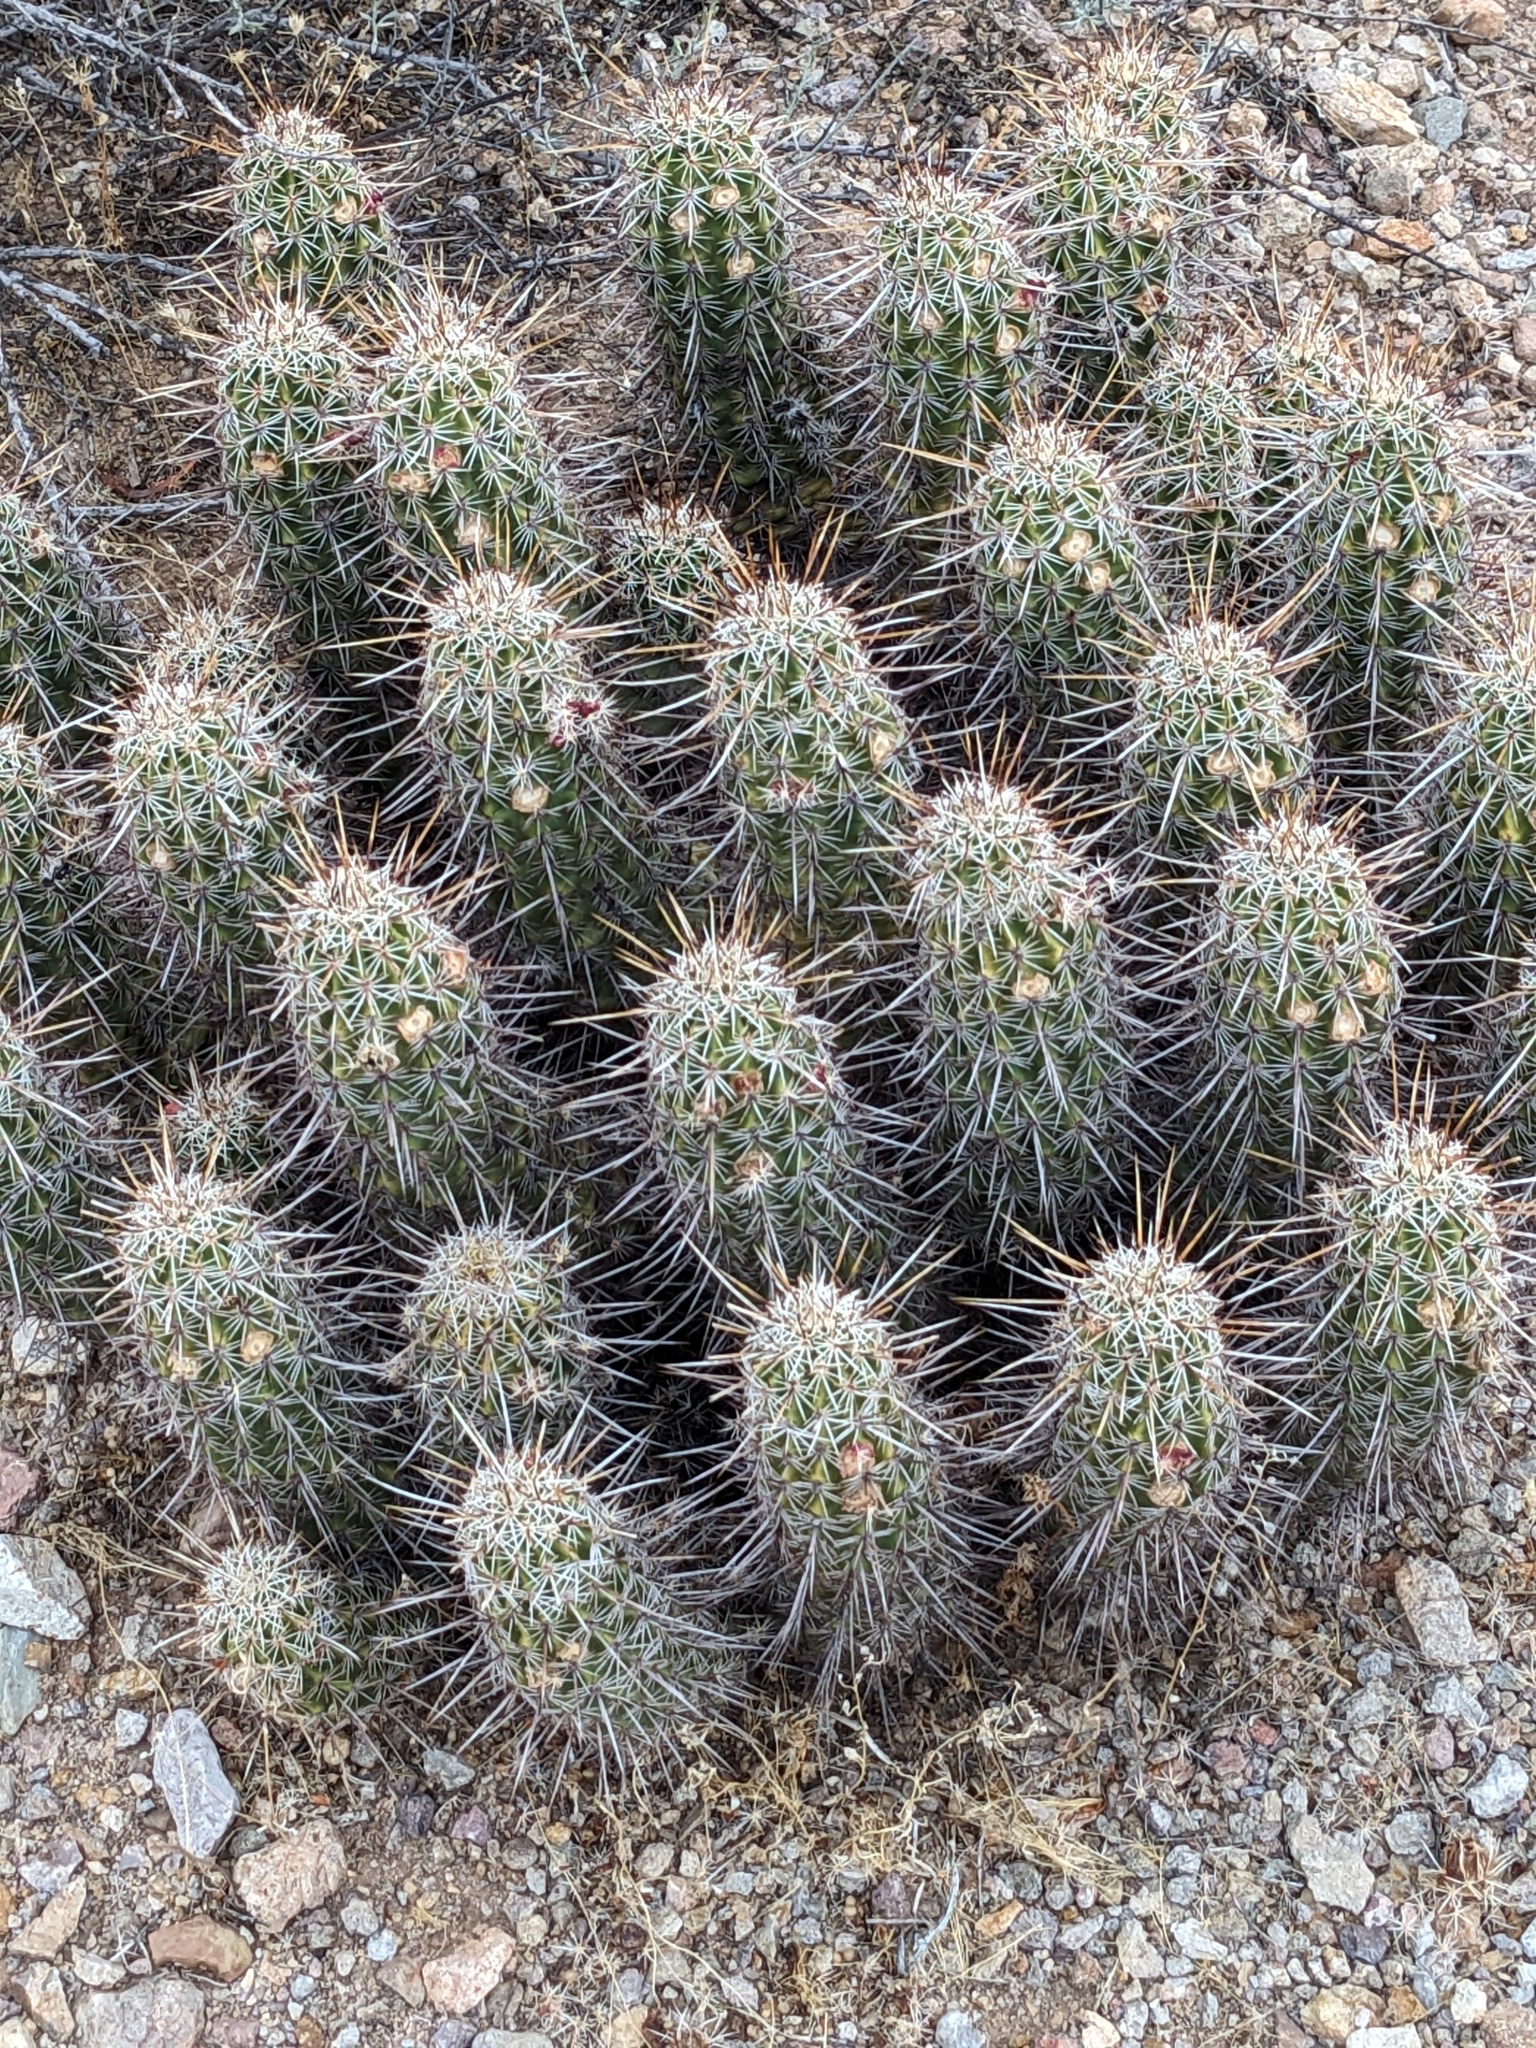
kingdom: Plantae
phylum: Tracheophyta
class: Magnoliopsida
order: Caryophyllales
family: Cactaceae
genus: Echinocereus
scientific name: Echinocereus fasciculatus
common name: Bundle hedgehog
